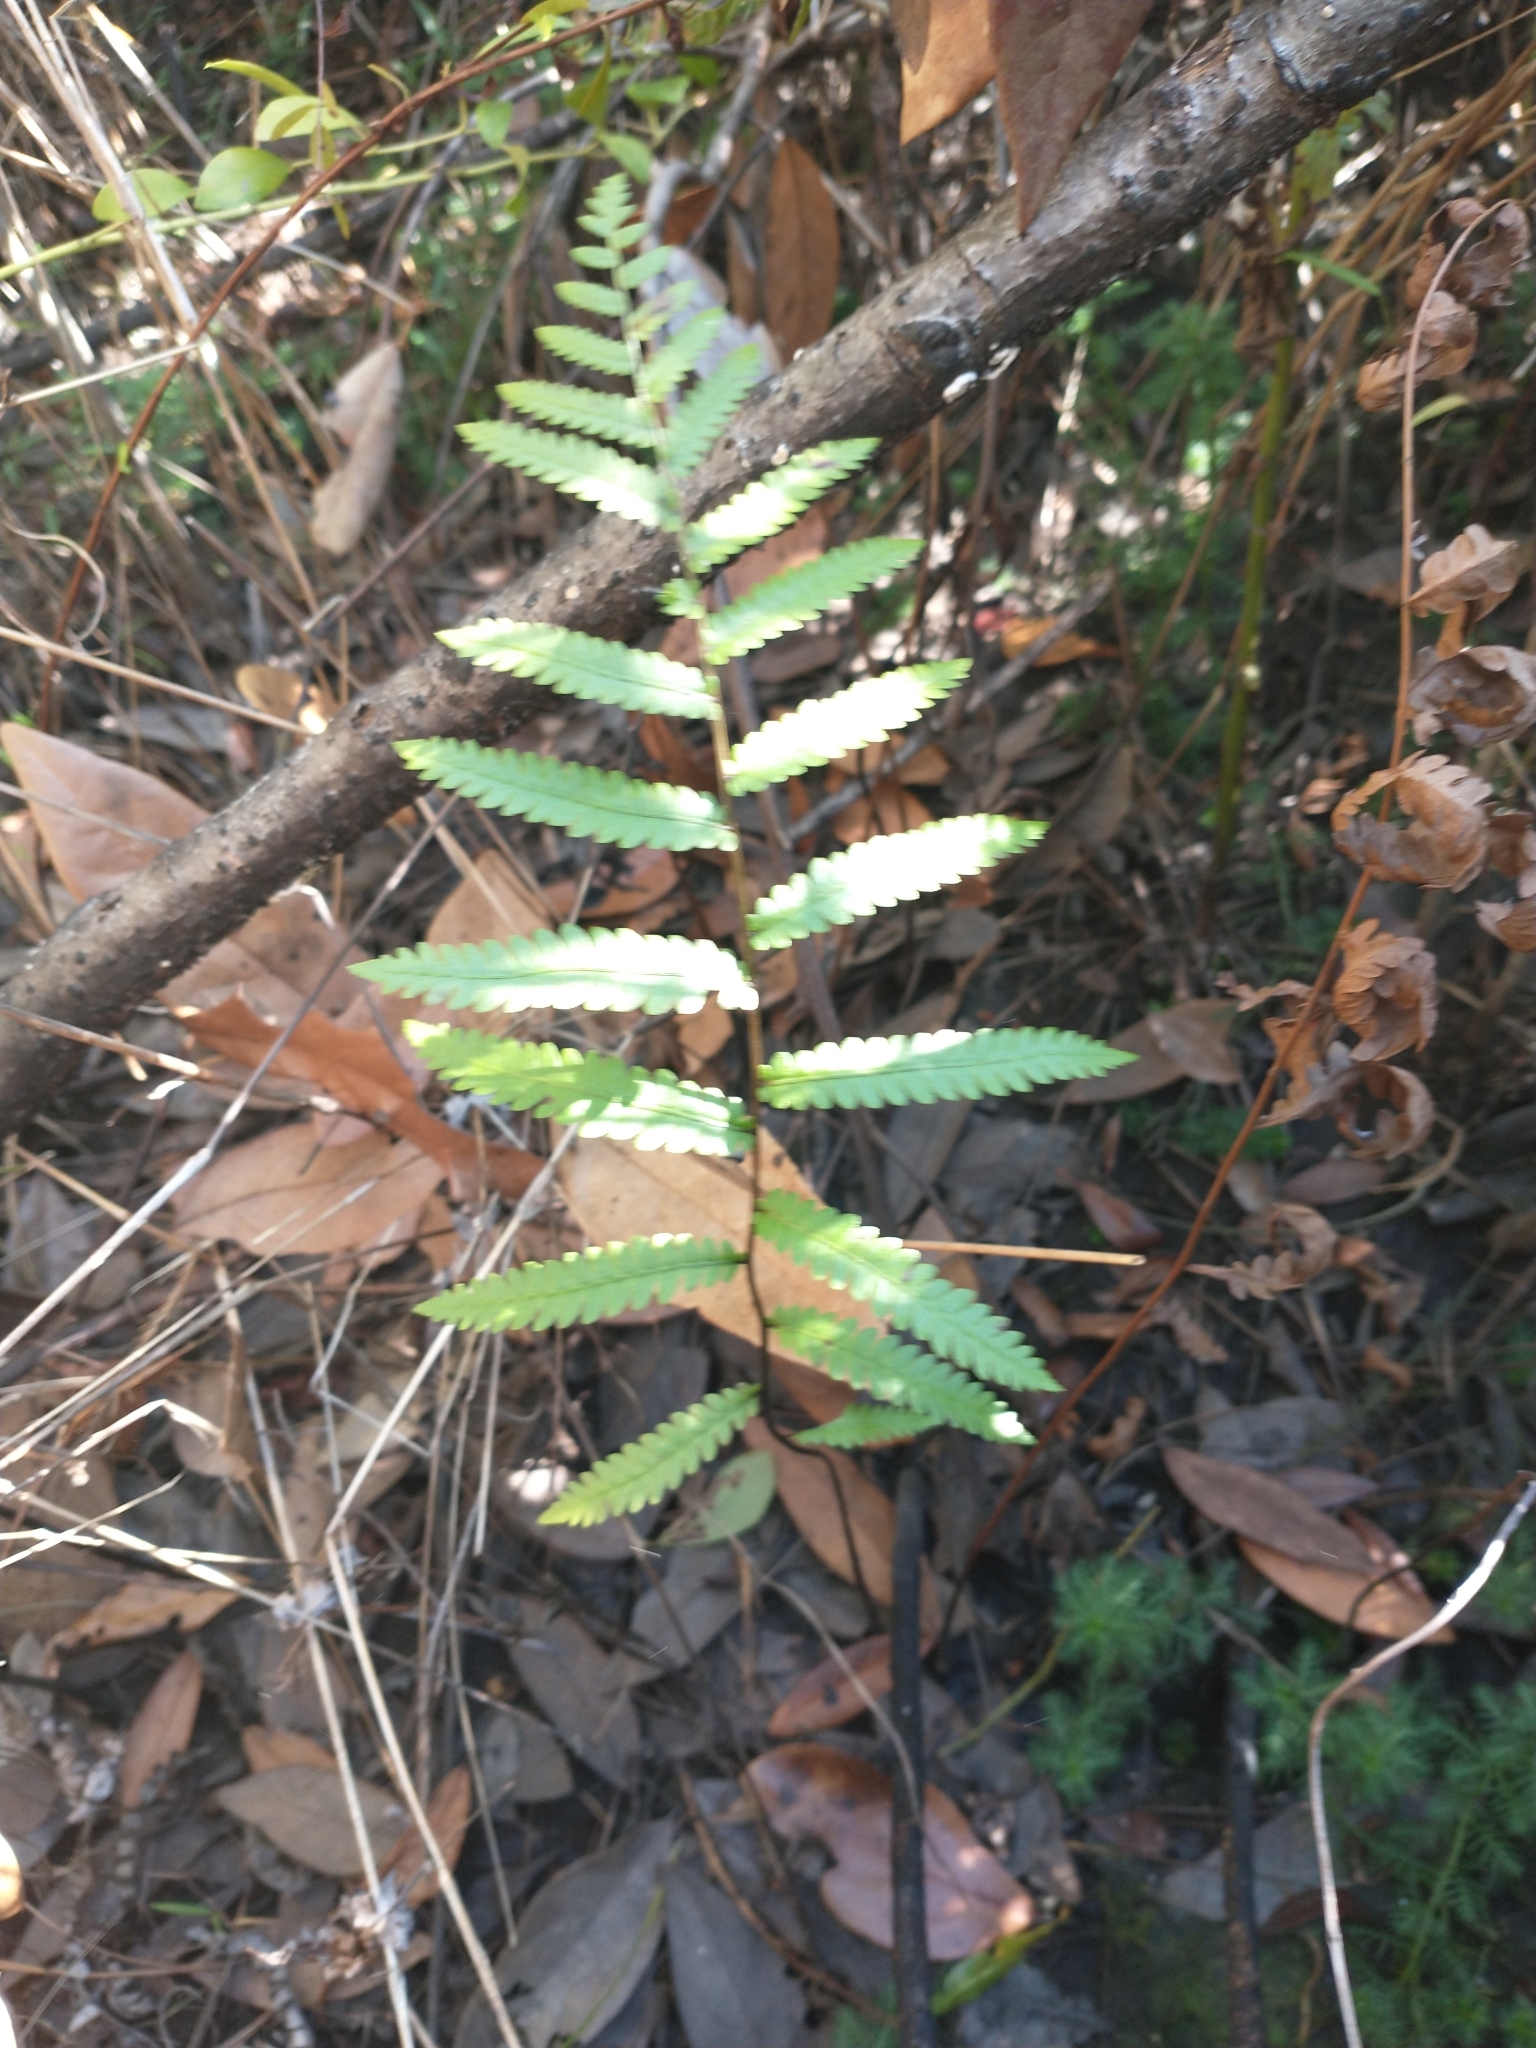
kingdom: Plantae
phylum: Tracheophyta
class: Polypodiopsida
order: Polypodiales
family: Blechnaceae
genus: Anchistea
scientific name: Anchistea virginica
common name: Virginia chain fern
